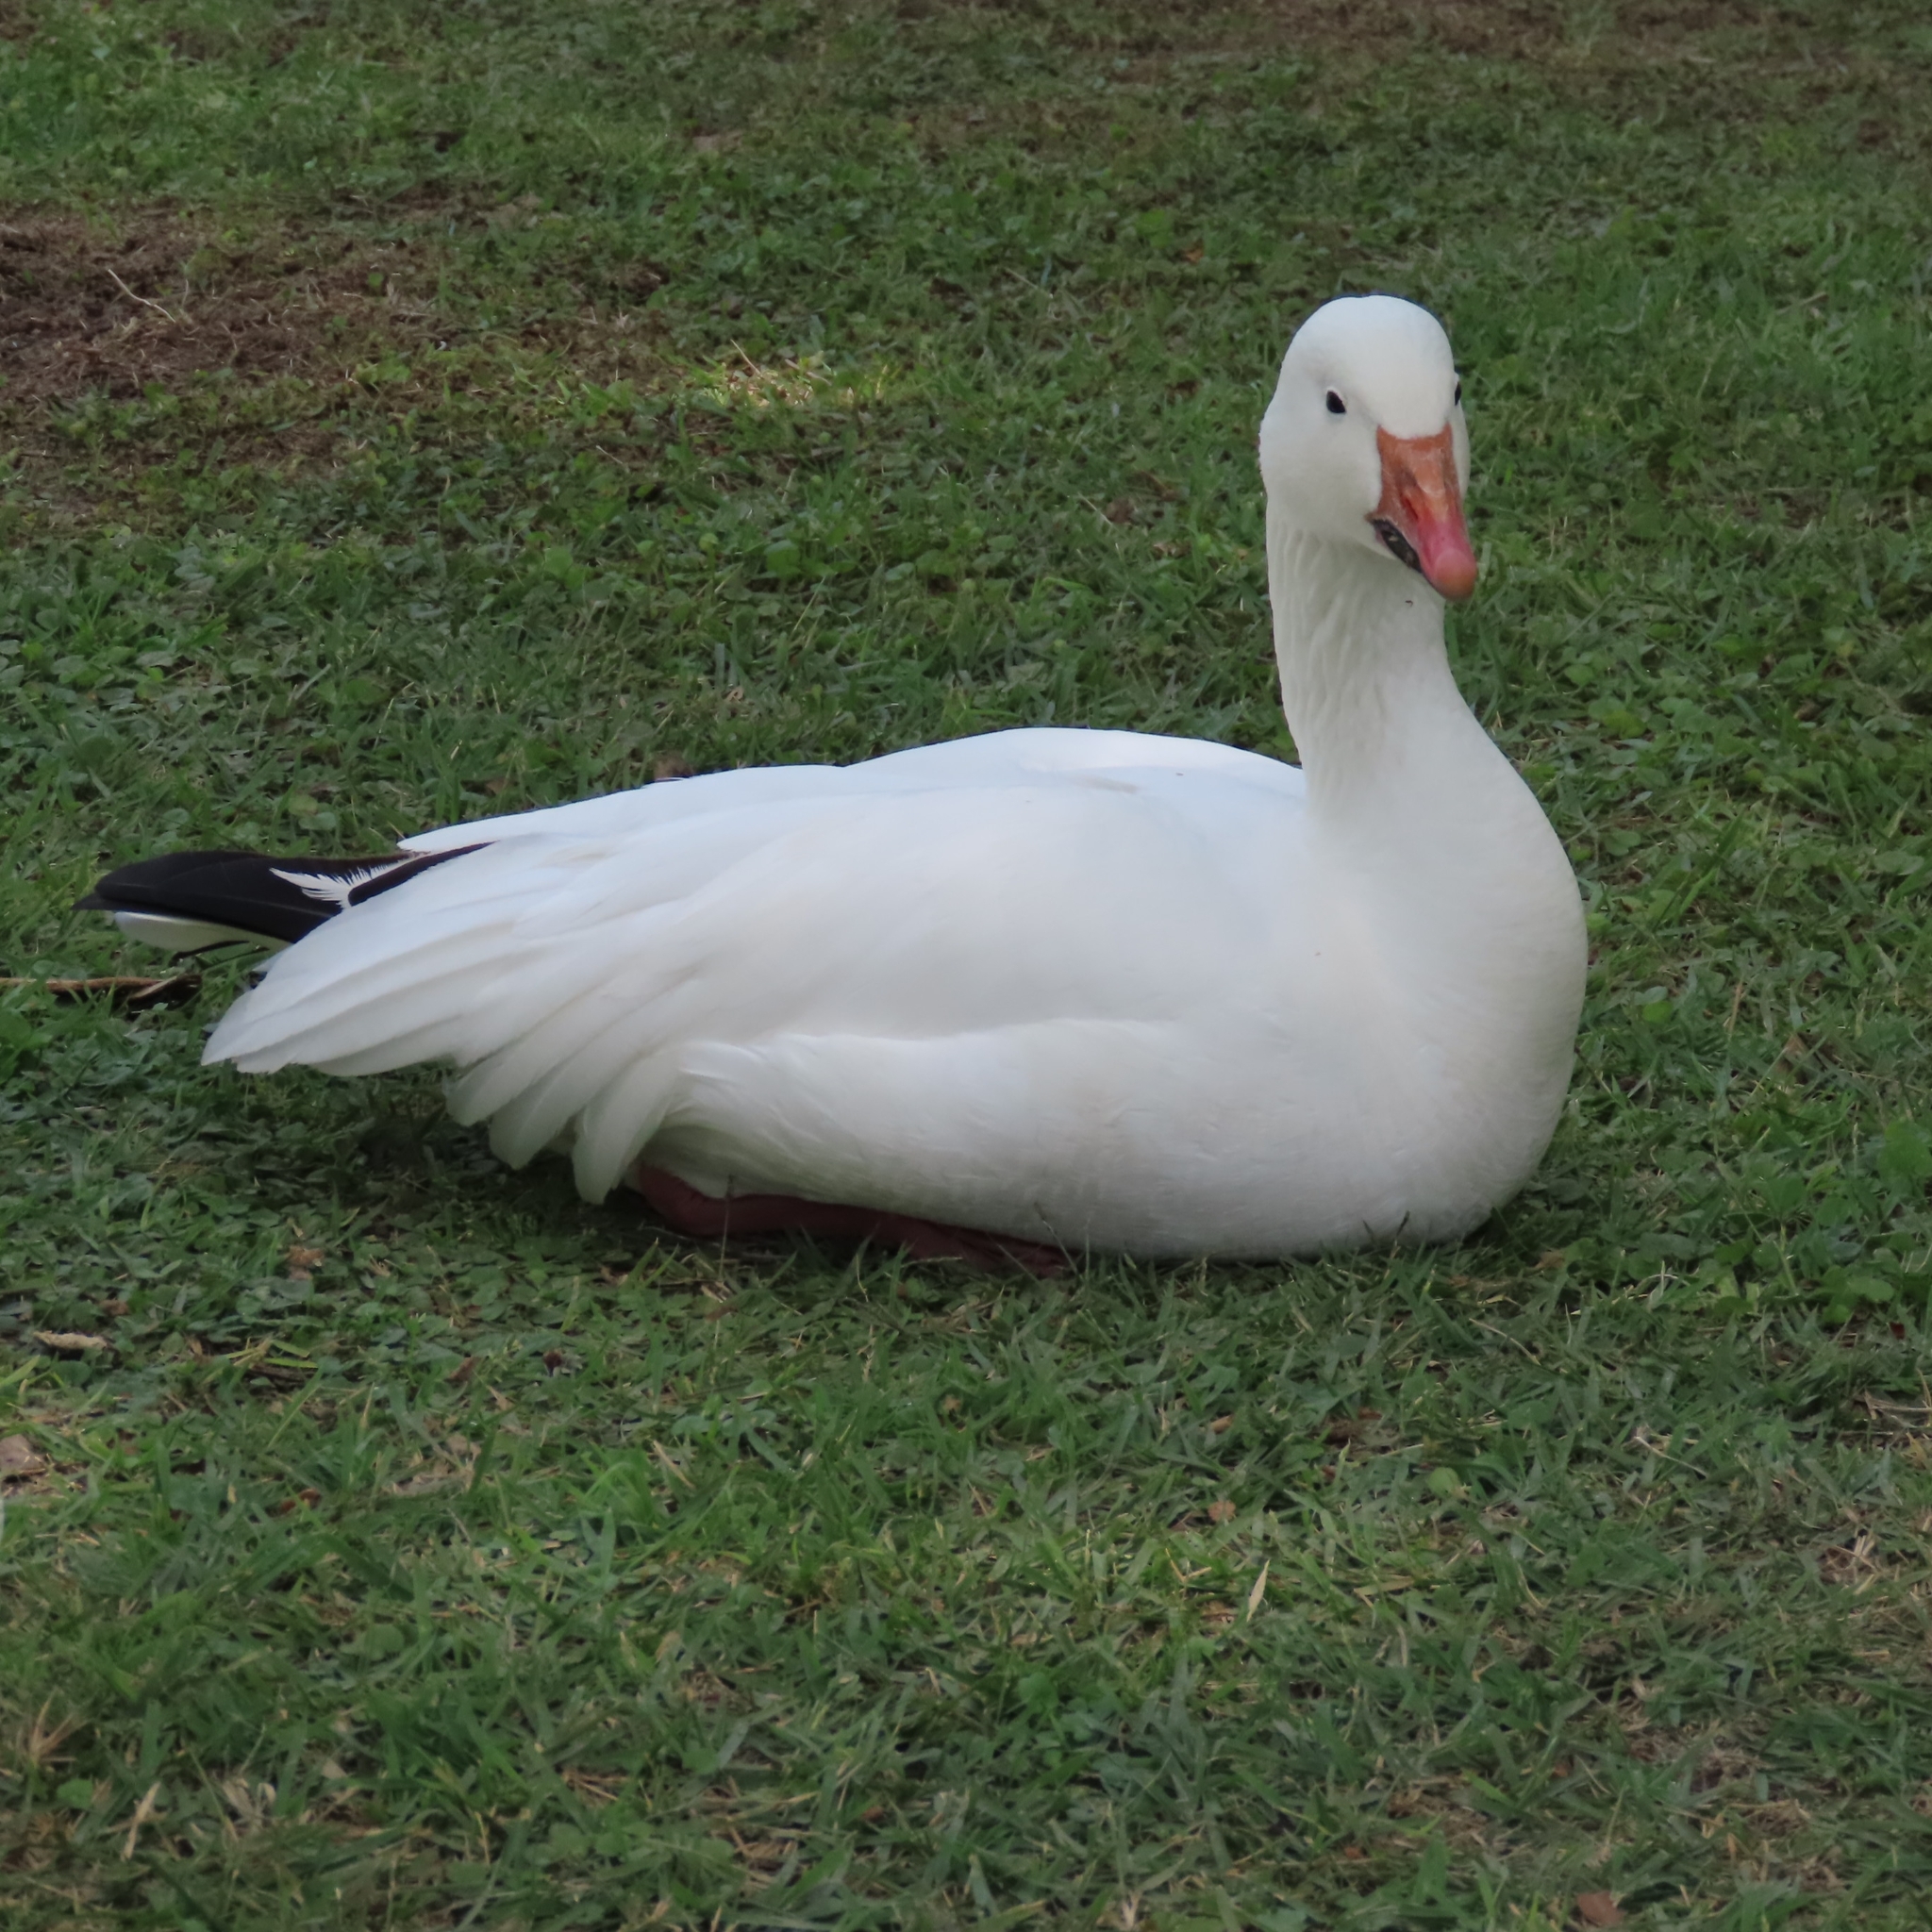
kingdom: Animalia
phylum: Chordata
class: Aves
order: Anseriformes
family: Anatidae
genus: Anser
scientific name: Anser caerulescens
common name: Snow goose
